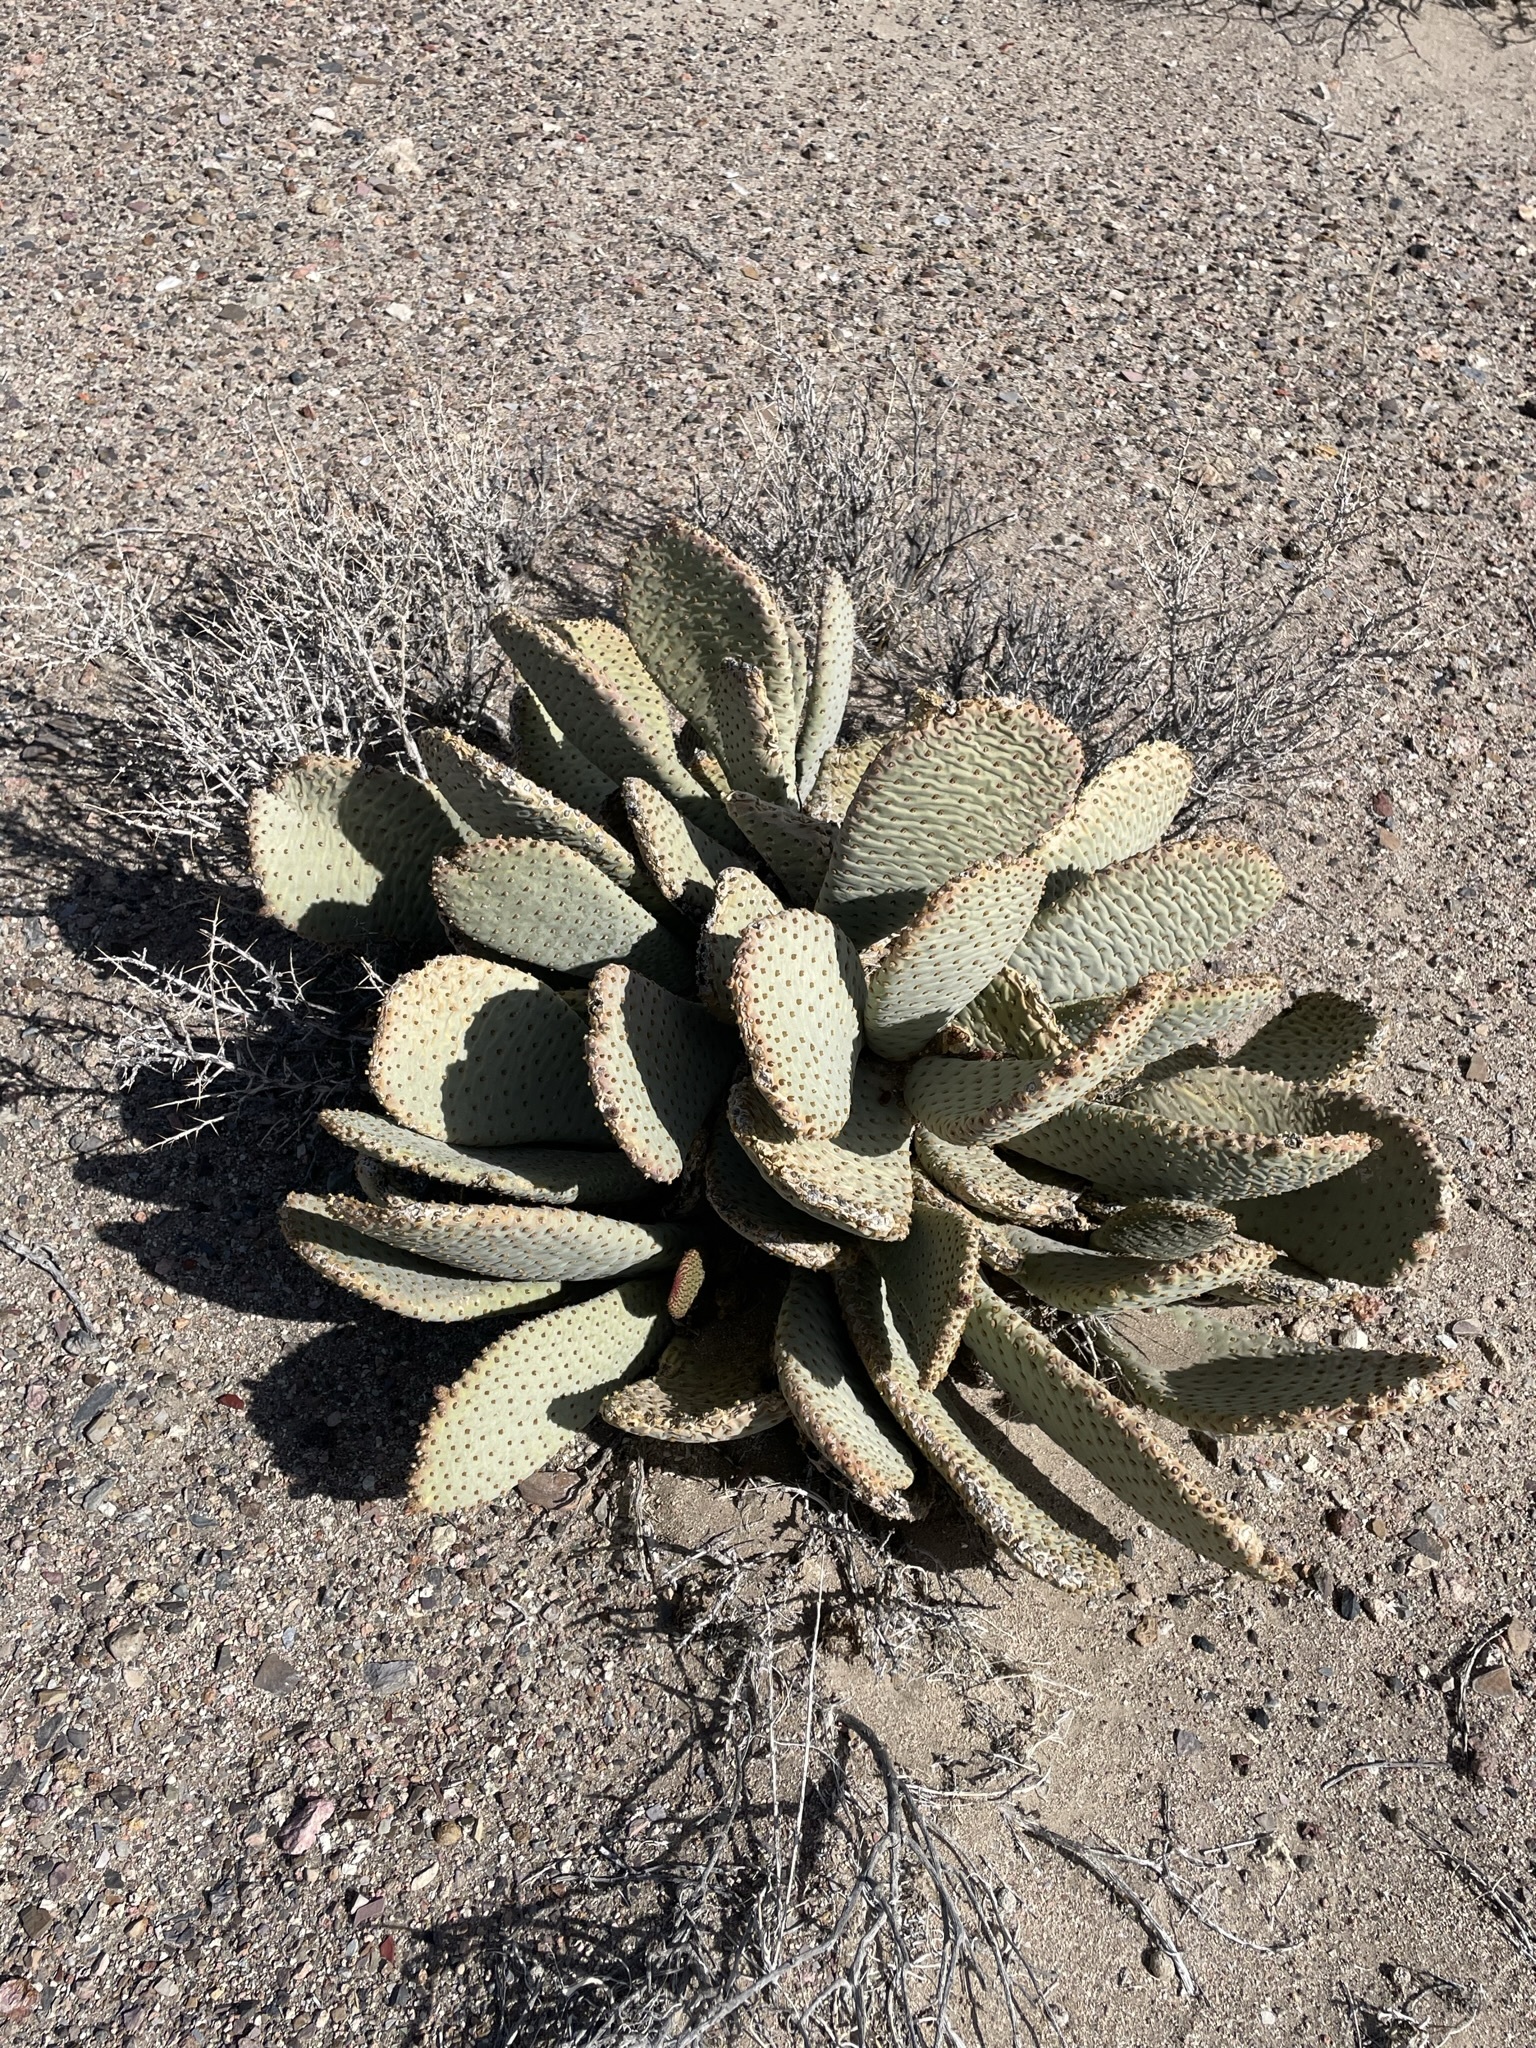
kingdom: Plantae
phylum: Tracheophyta
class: Magnoliopsida
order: Caryophyllales
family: Cactaceae
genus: Opuntia
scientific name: Opuntia basilaris
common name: Beavertail prickly-pear
